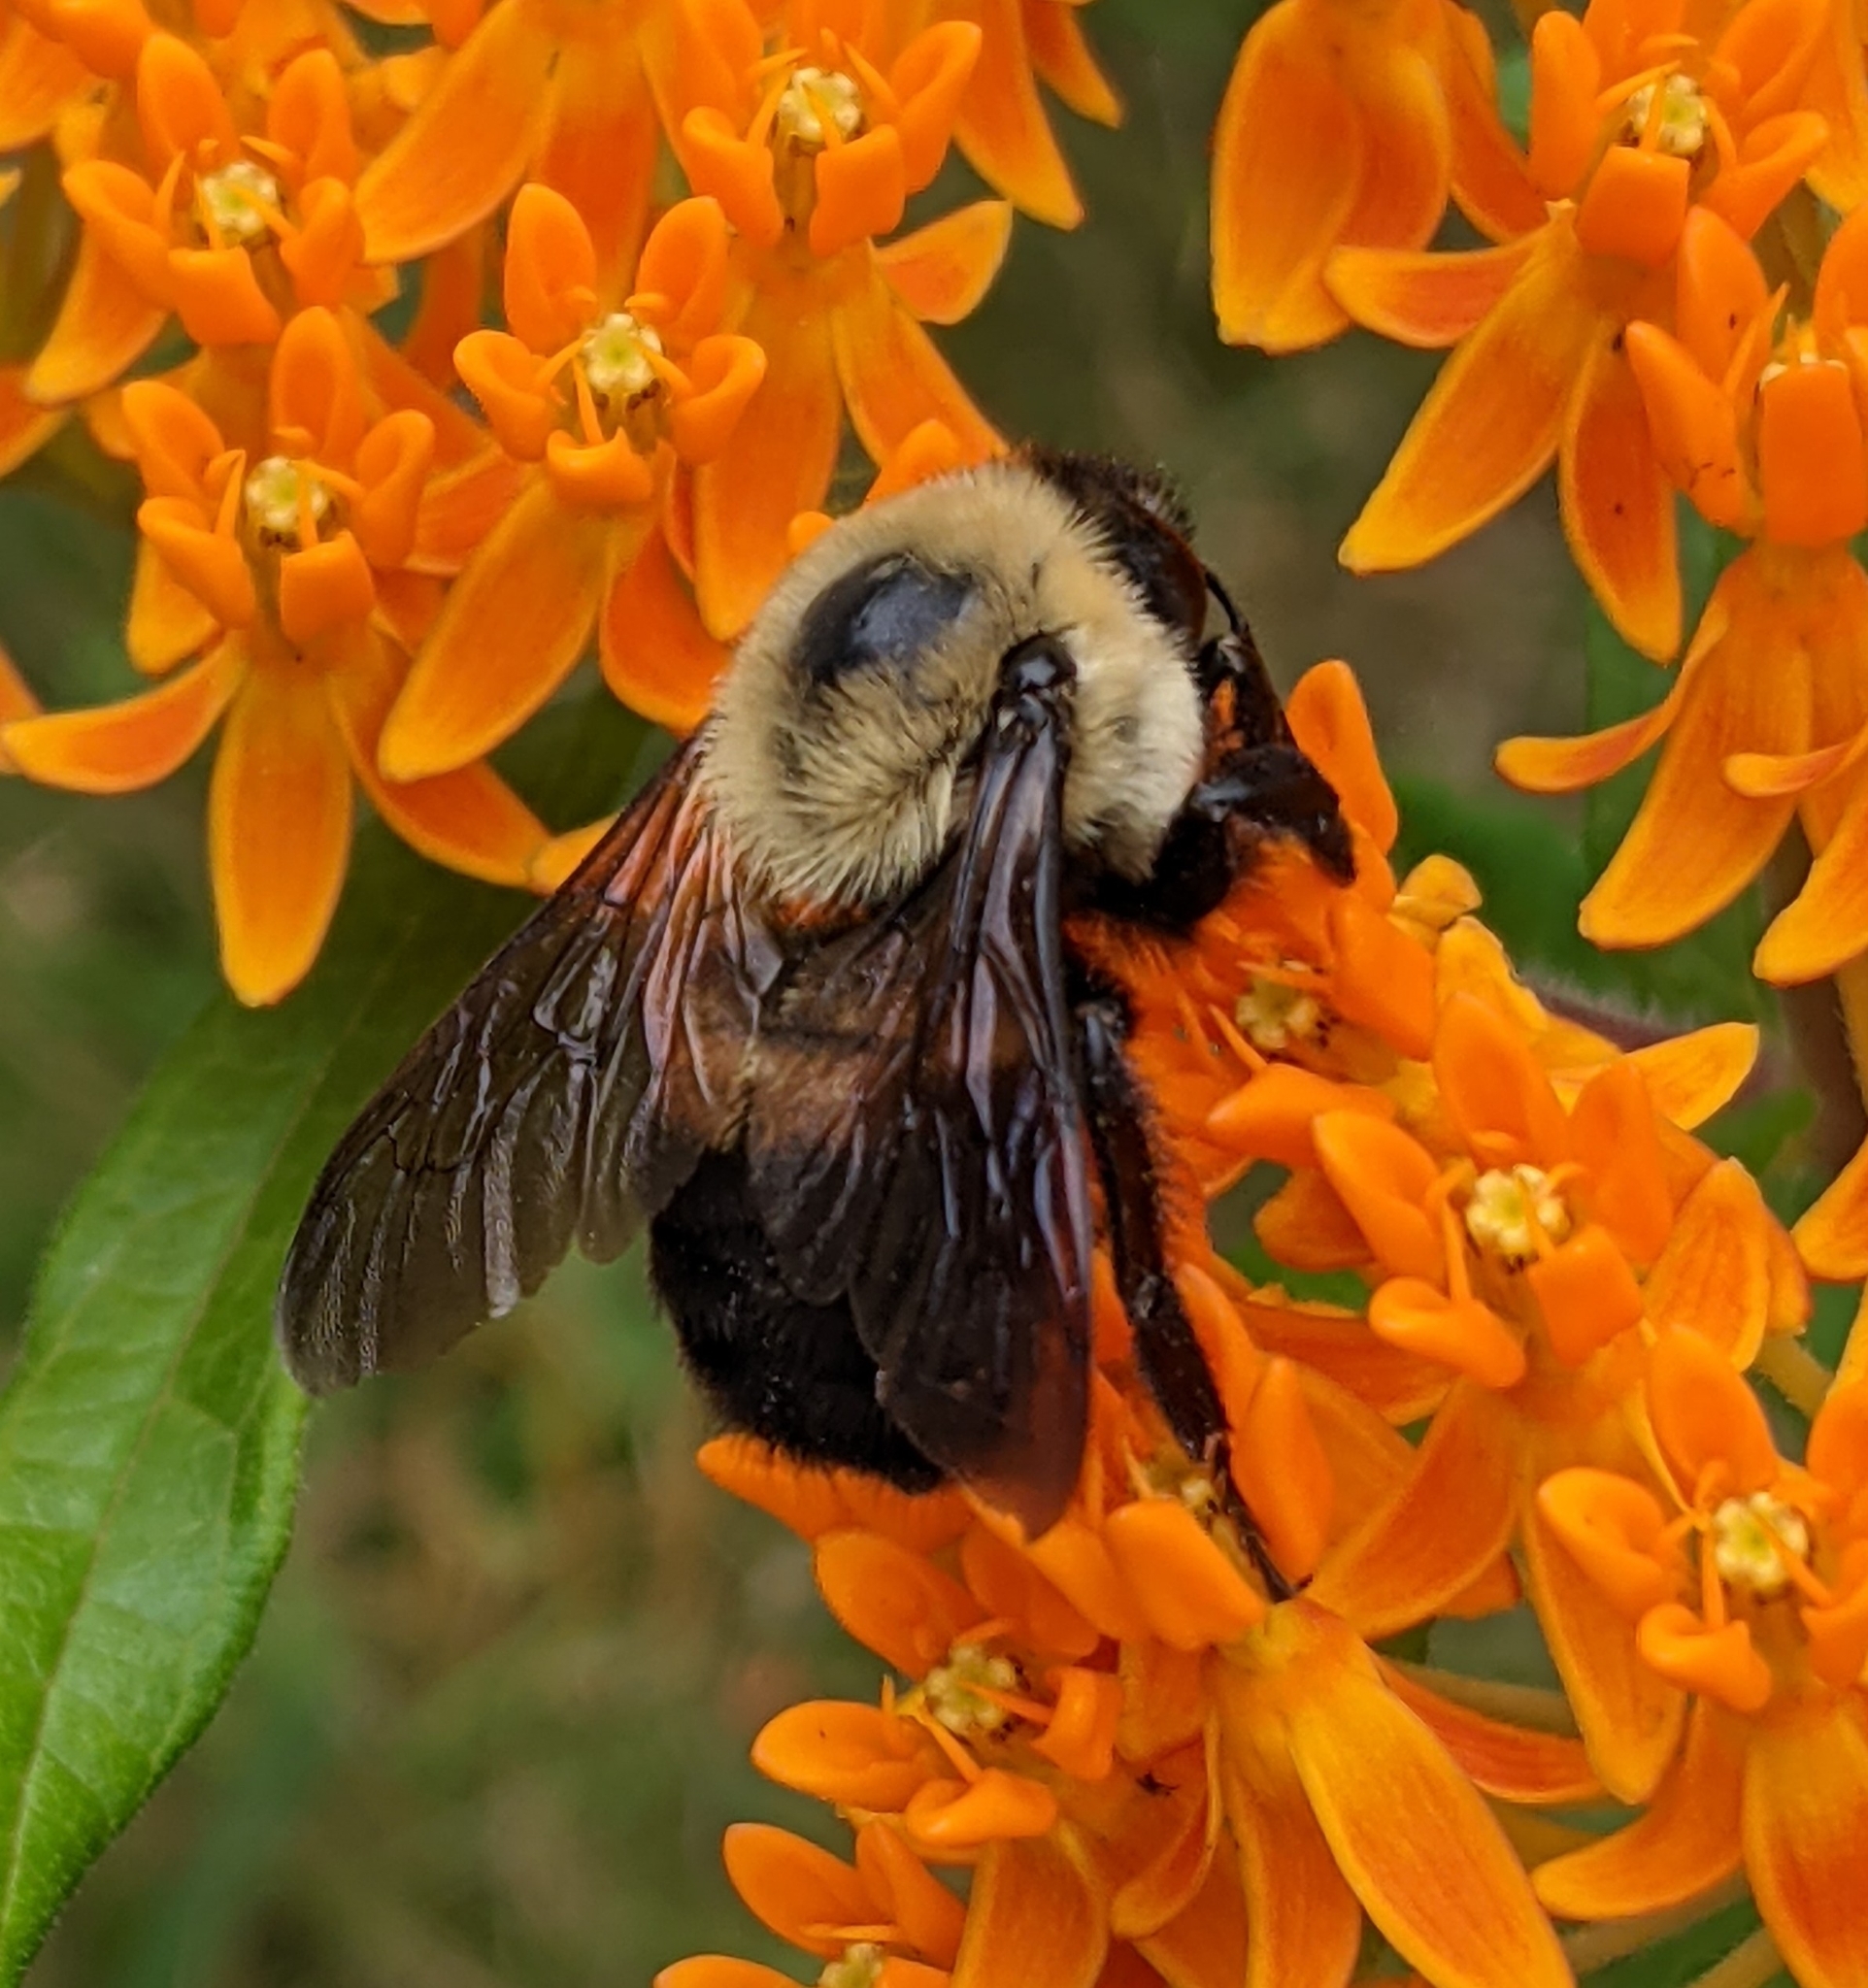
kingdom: Animalia
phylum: Arthropoda
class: Insecta
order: Hymenoptera
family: Apidae
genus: Bombus
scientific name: Bombus griseocollis
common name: Brown-belted bumble bee
